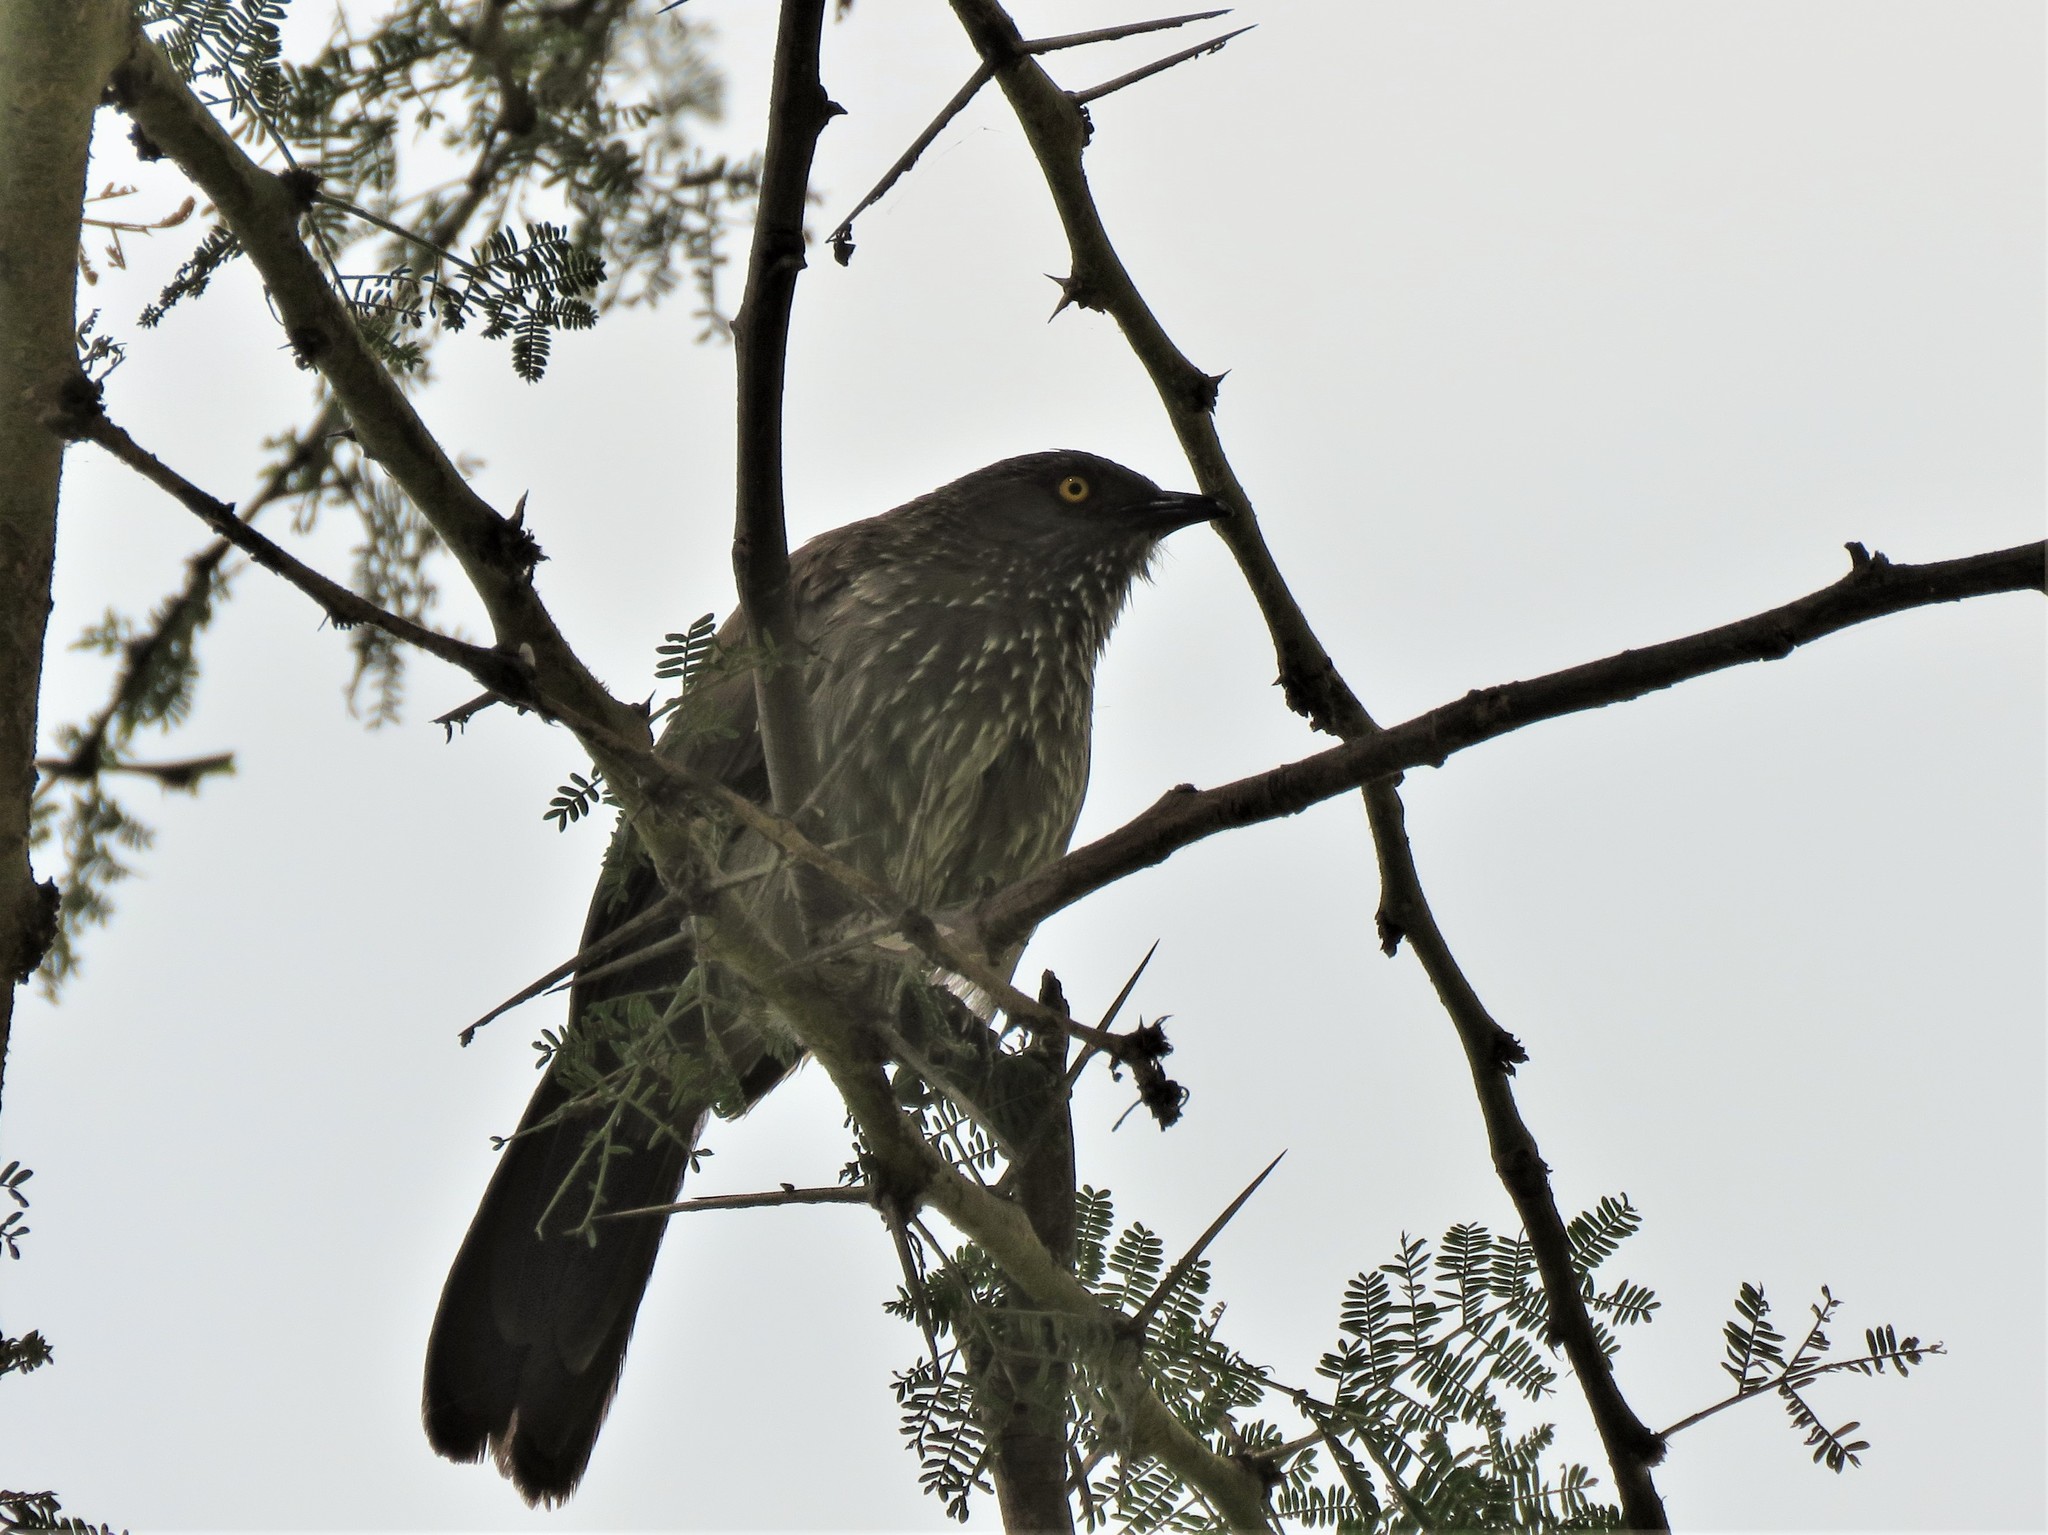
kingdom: Animalia
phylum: Chordata
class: Aves
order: Passeriformes
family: Leiothrichidae
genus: Turdoides
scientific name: Turdoides jardineii
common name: Arrow-marked babbler
